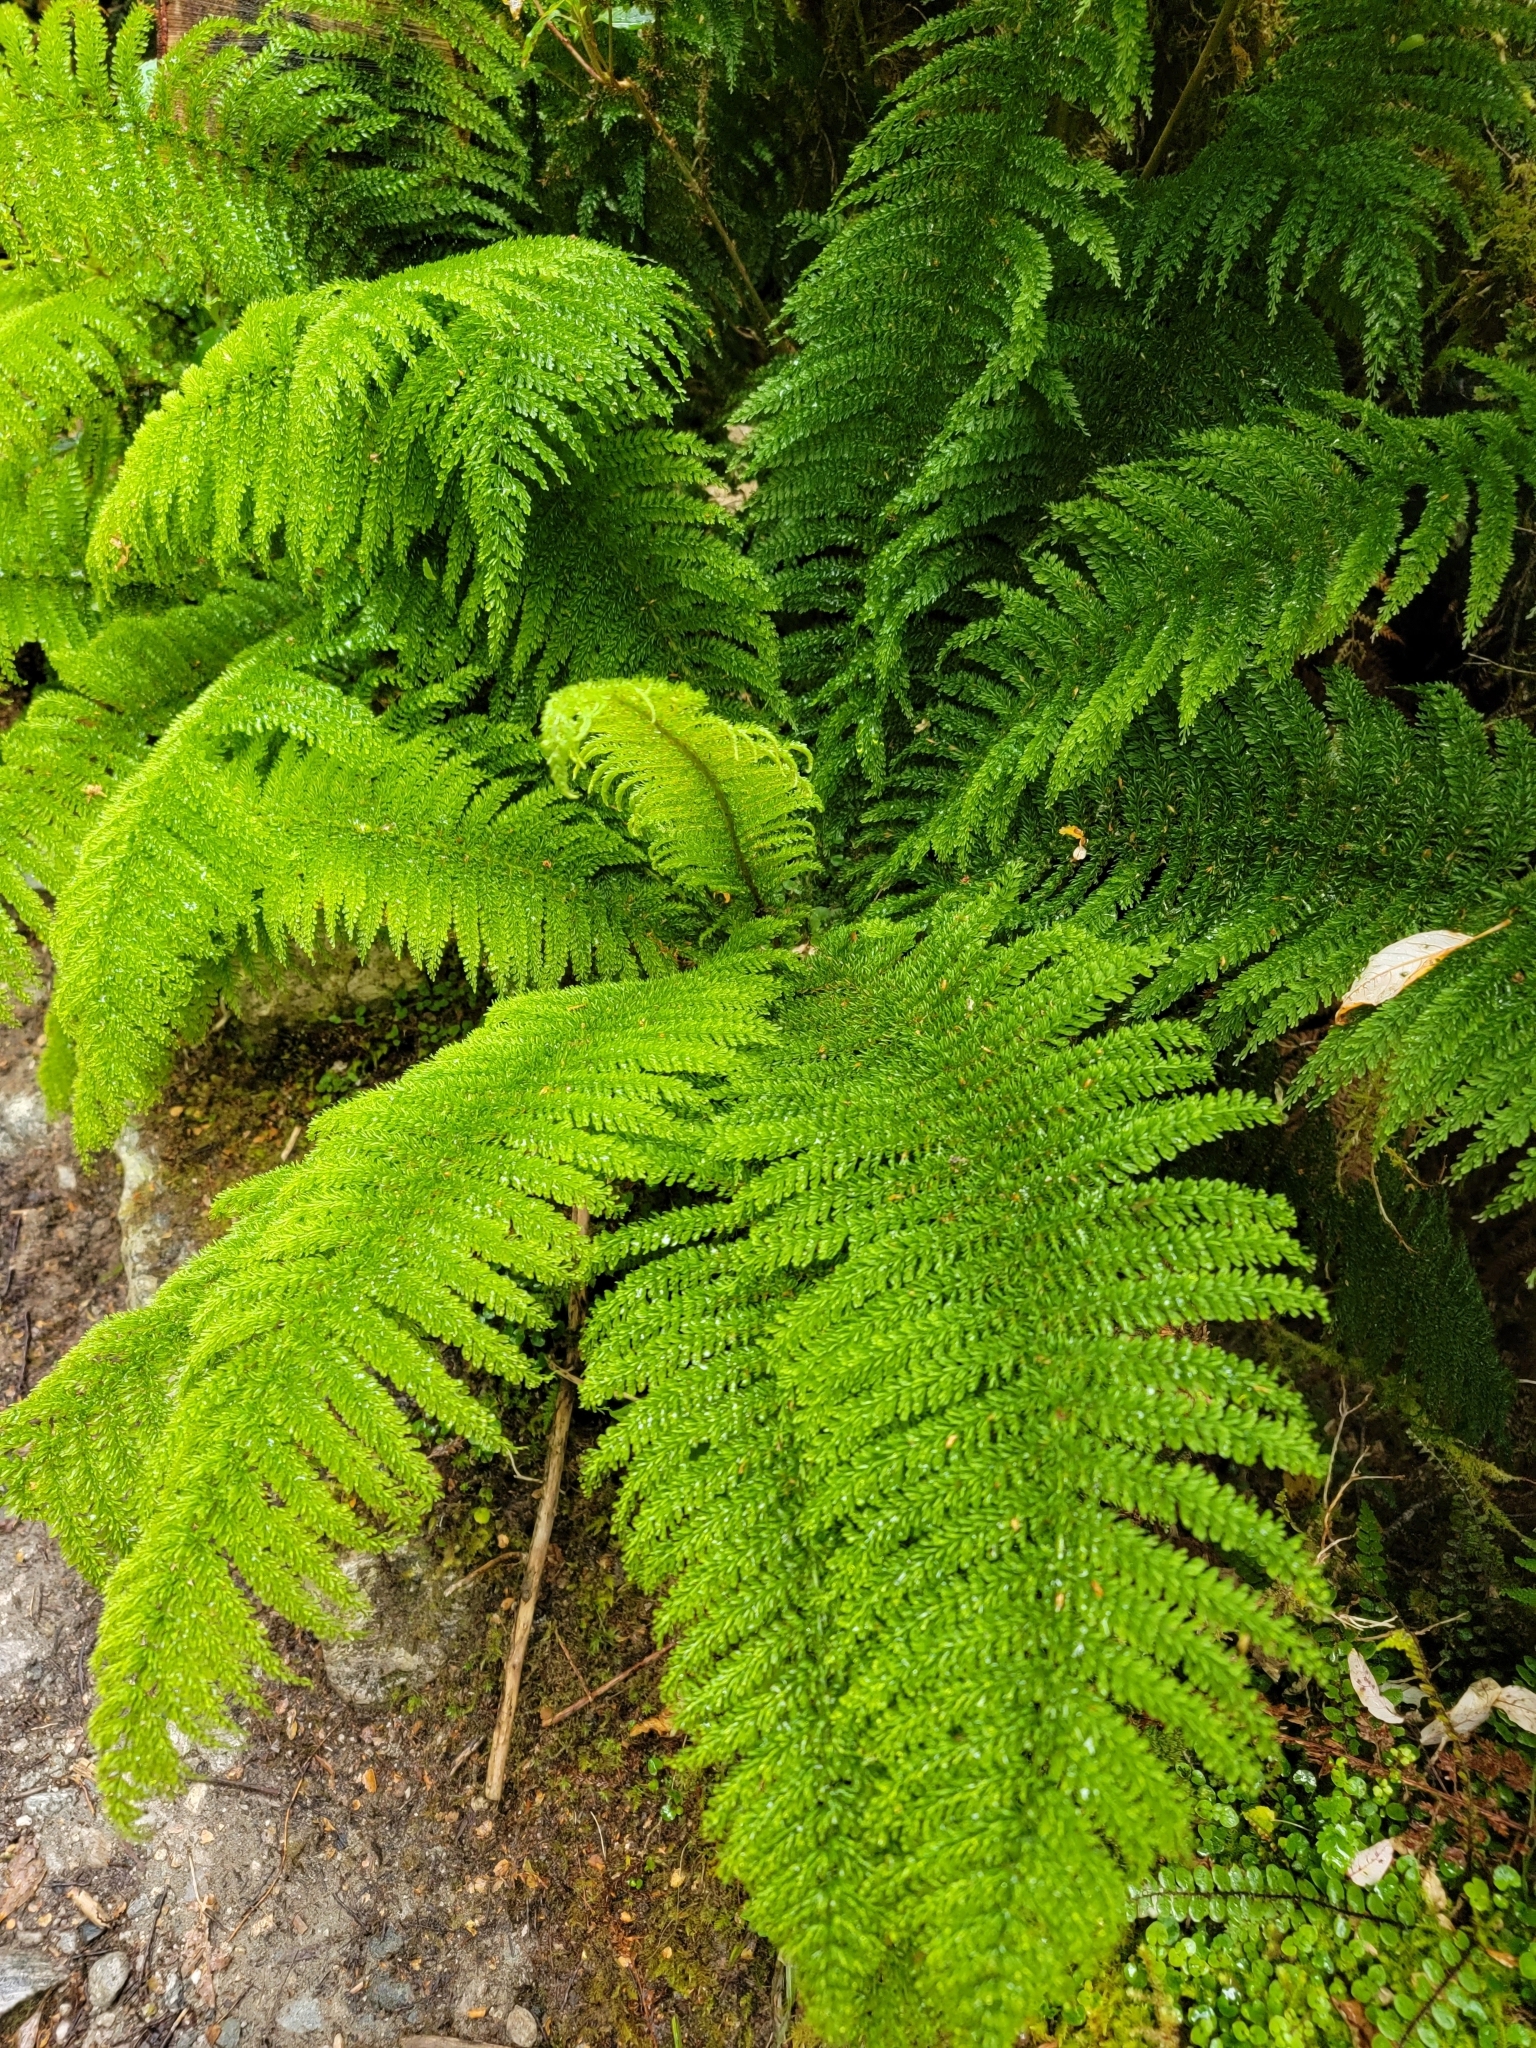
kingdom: Plantae
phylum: Tracheophyta
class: Polypodiopsida
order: Osmundales
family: Osmundaceae
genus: Leptopteris
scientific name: Leptopteris superba
